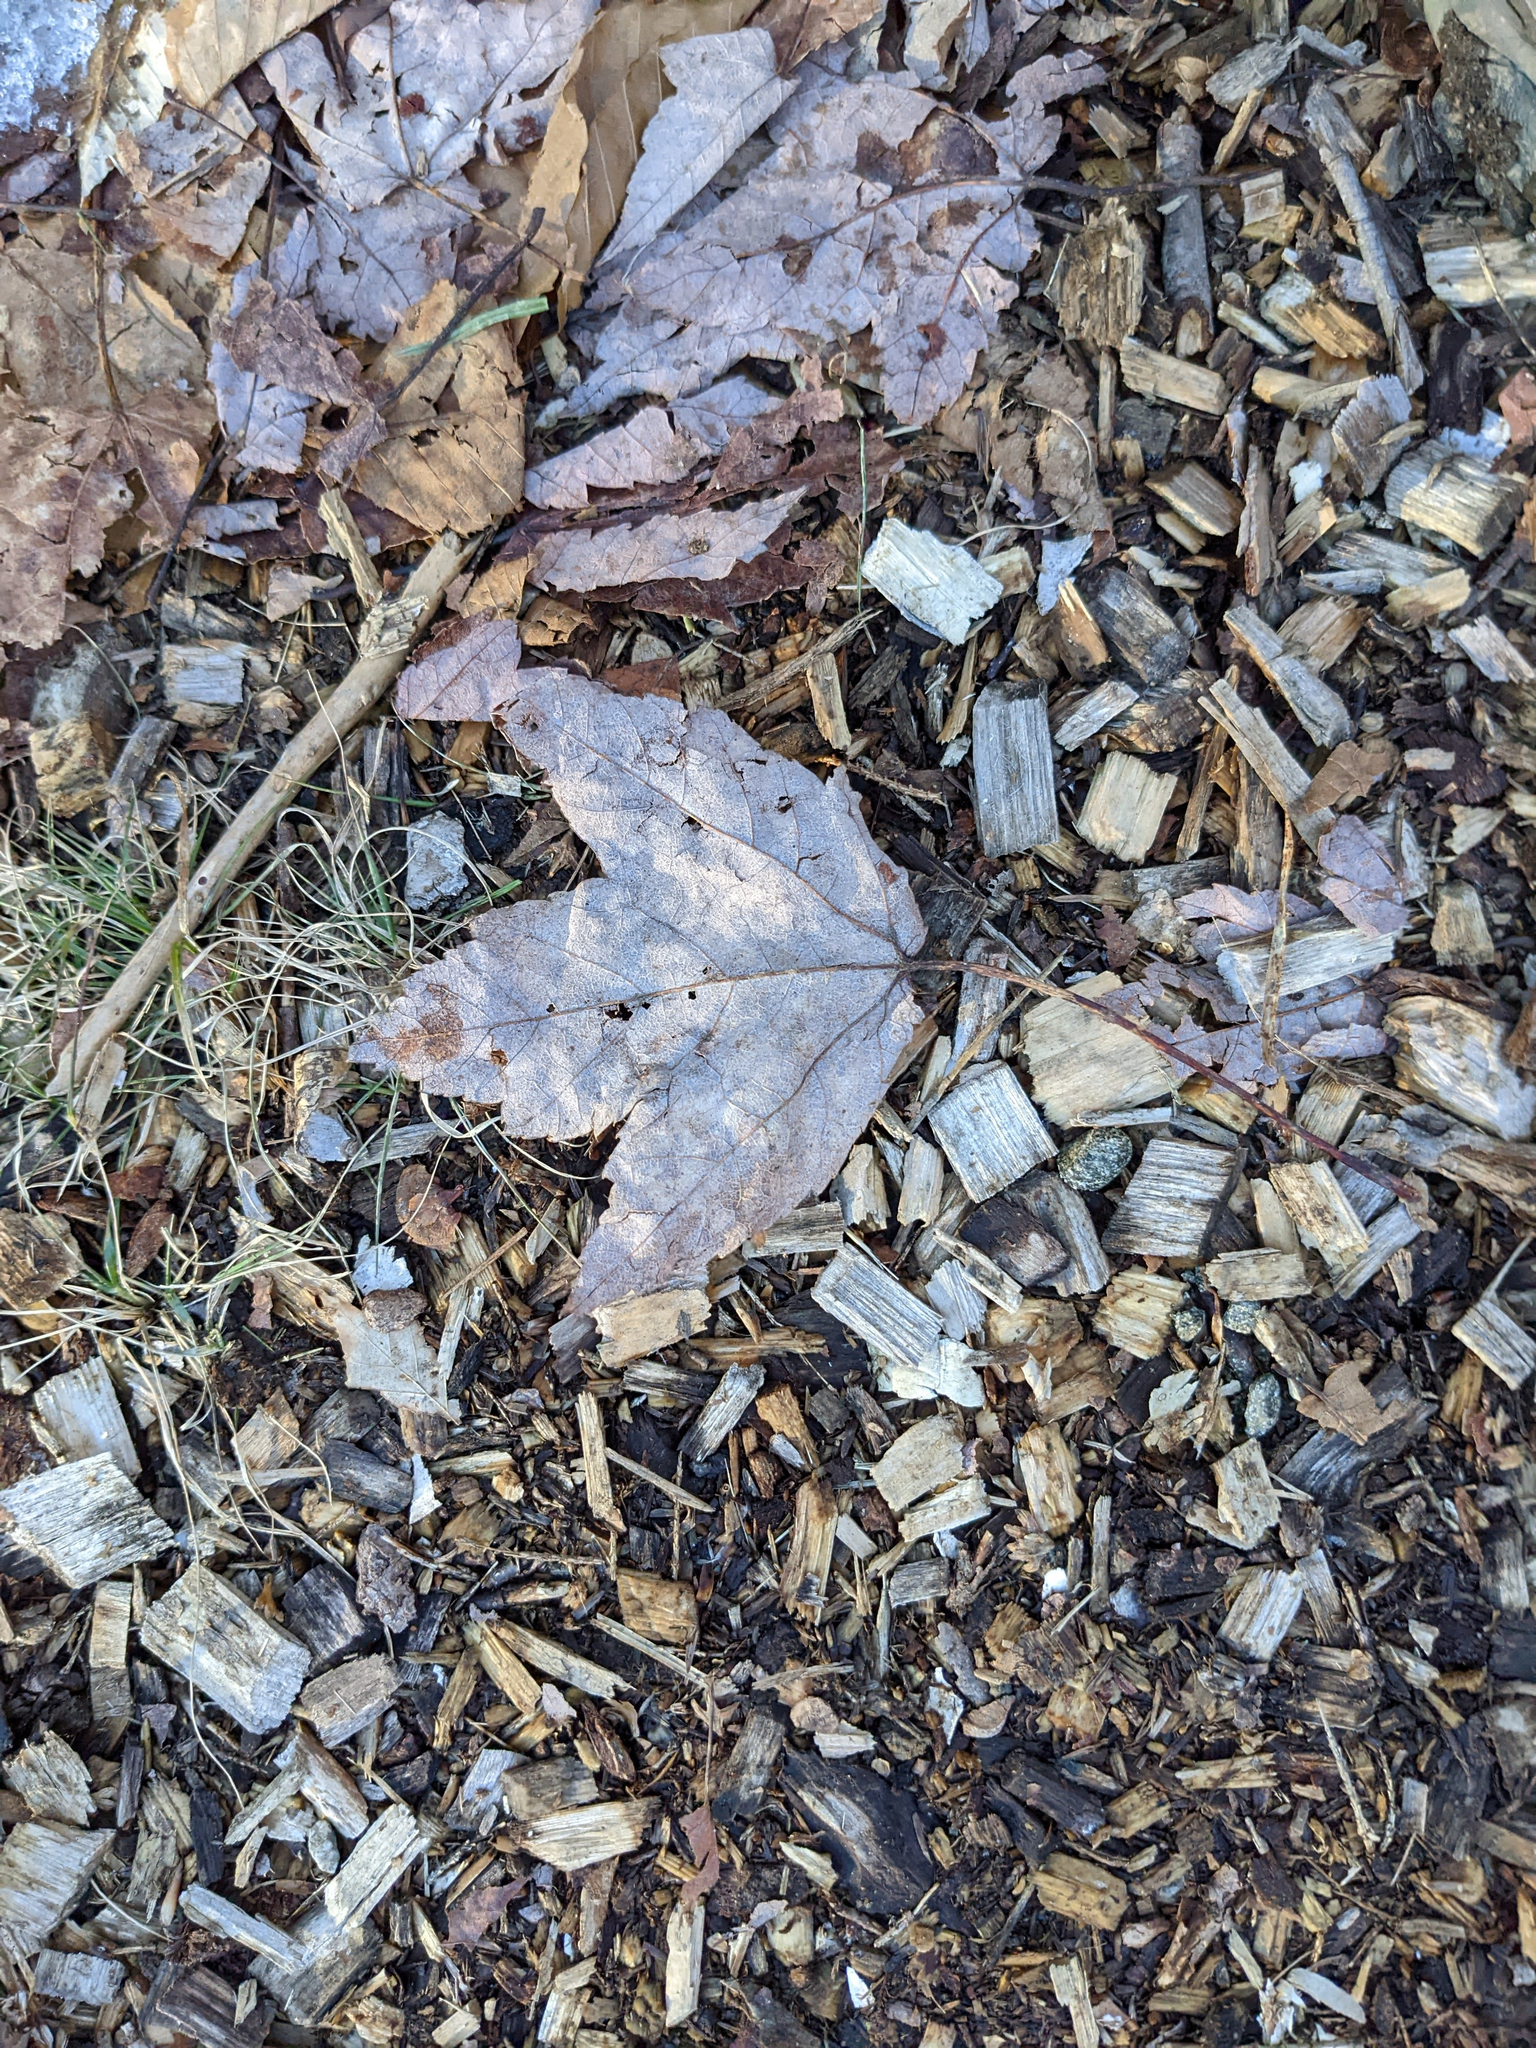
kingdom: Plantae
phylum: Tracheophyta
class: Magnoliopsida
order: Sapindales
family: Sapindaceae
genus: Acer
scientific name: Acer rubrum
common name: Red maple
